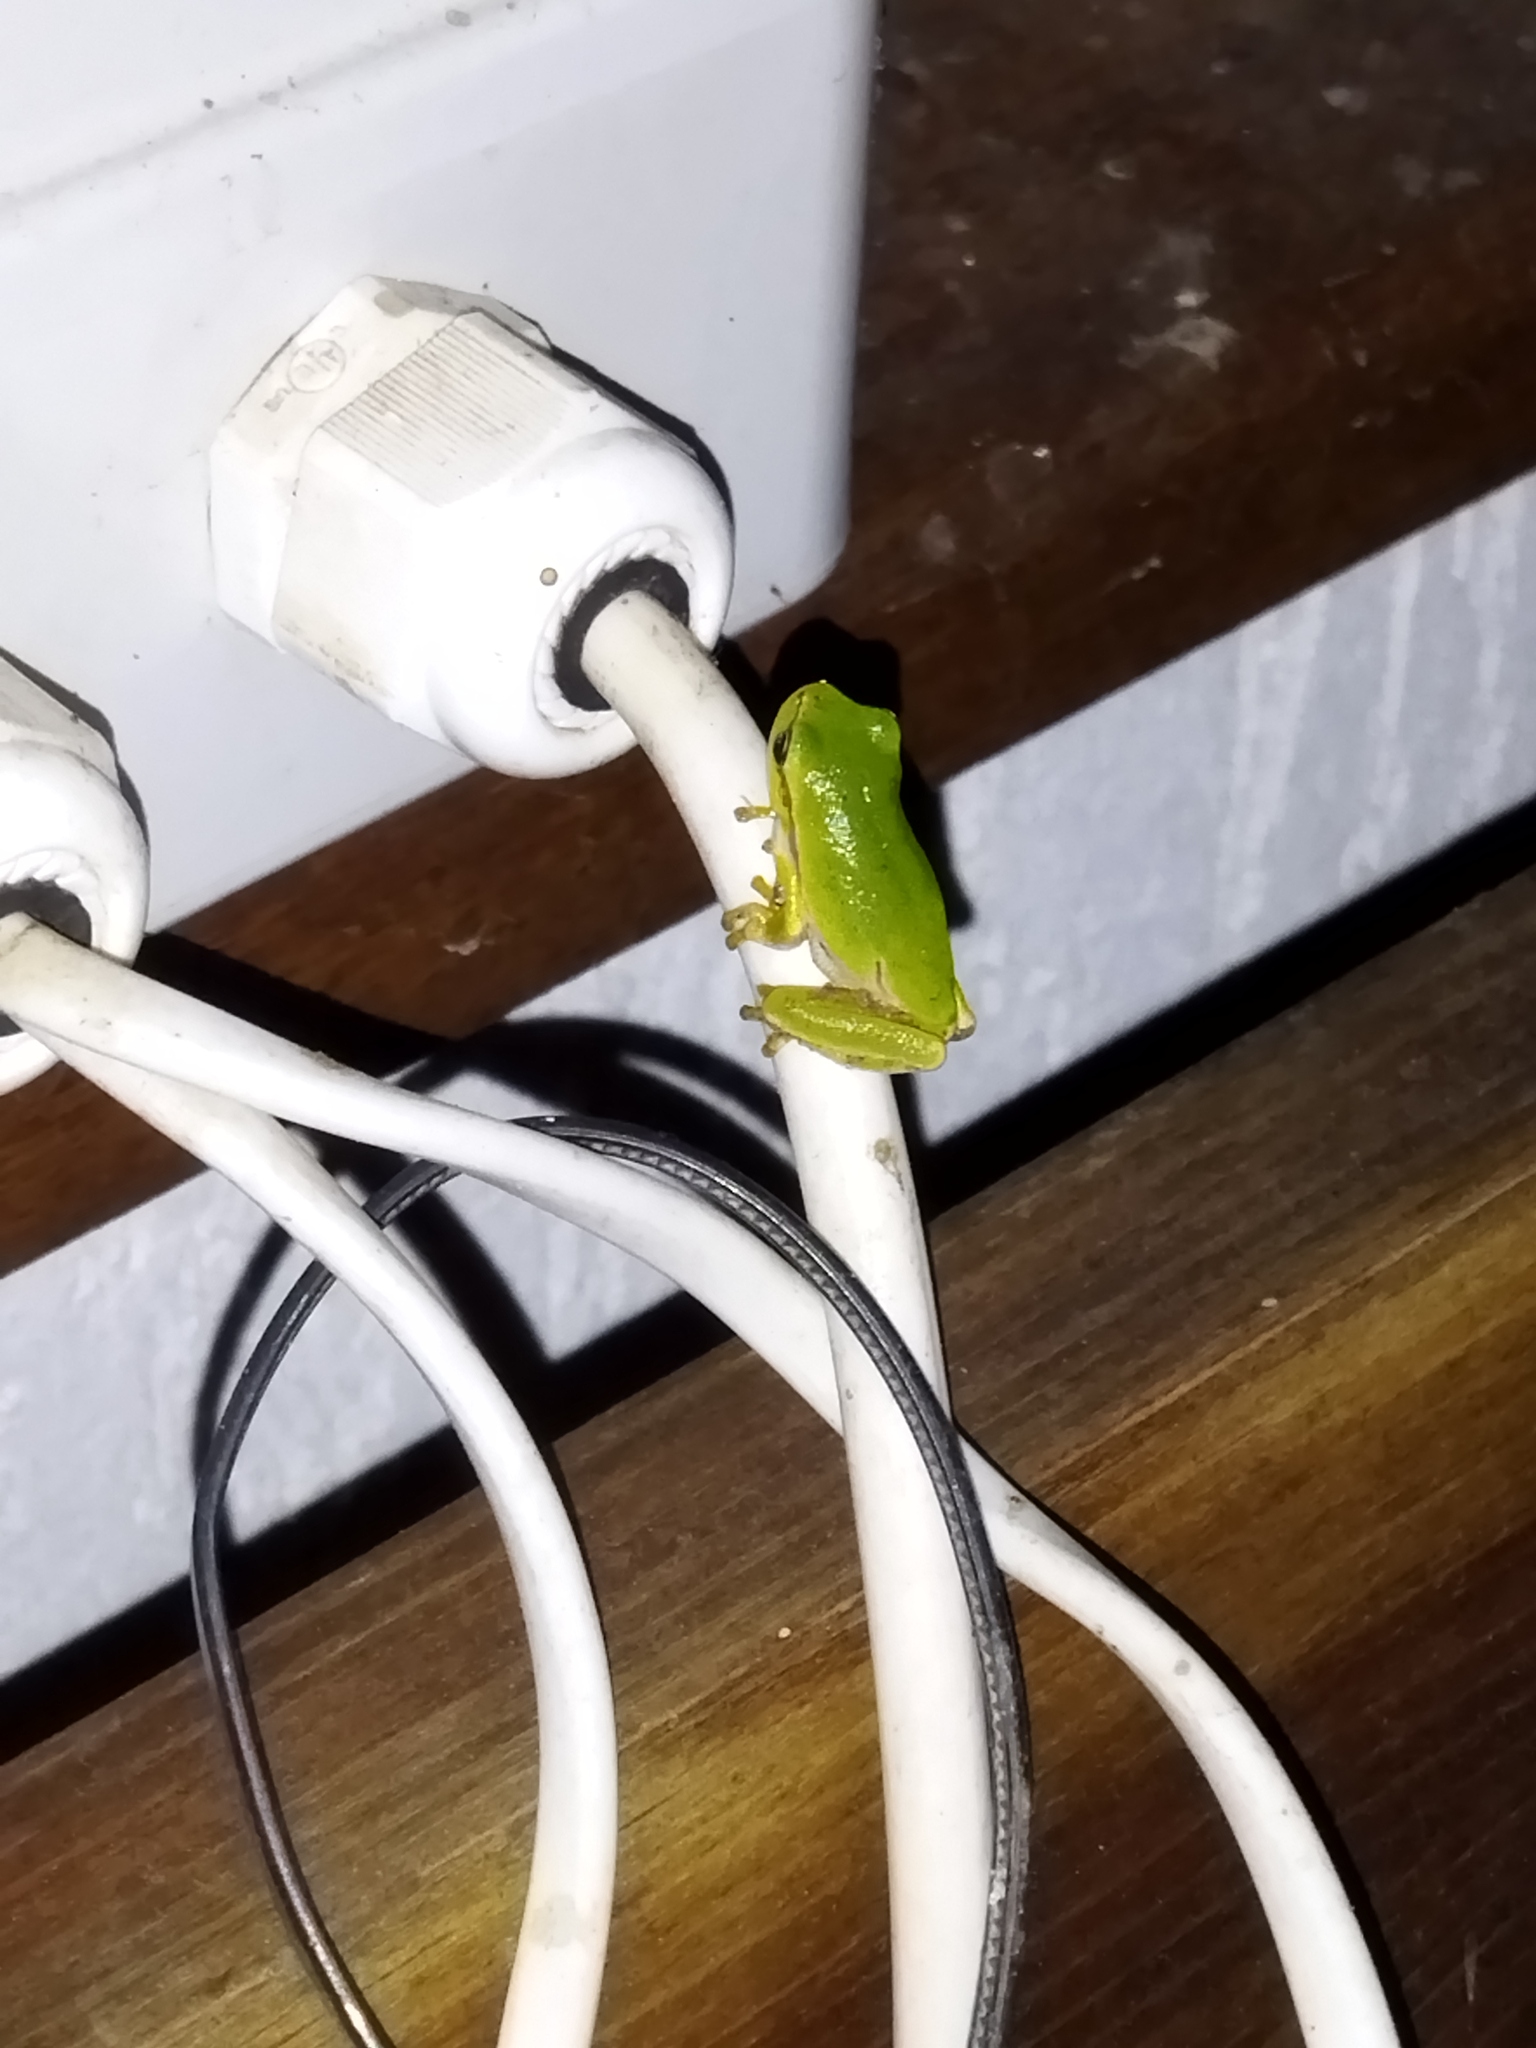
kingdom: Animalia
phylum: Chordata
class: Amphibia
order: Anura
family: Hylidae
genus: Hyla
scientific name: Hyla orientalis
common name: Caucasian treefrog
